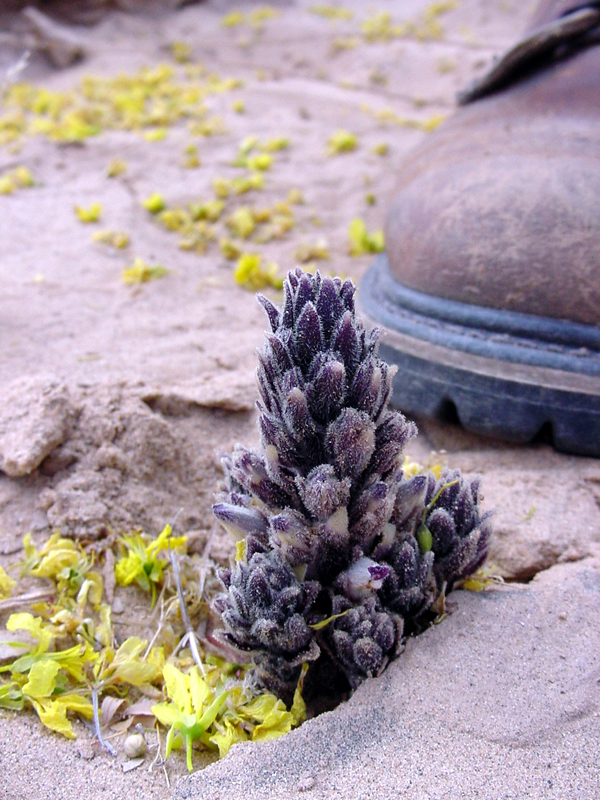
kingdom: Plantae
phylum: Tracheophyta
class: Magnoliopsida
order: Lamiales
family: Orobanchaceae
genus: Aphyllon
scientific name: Aphyllon cooperi
